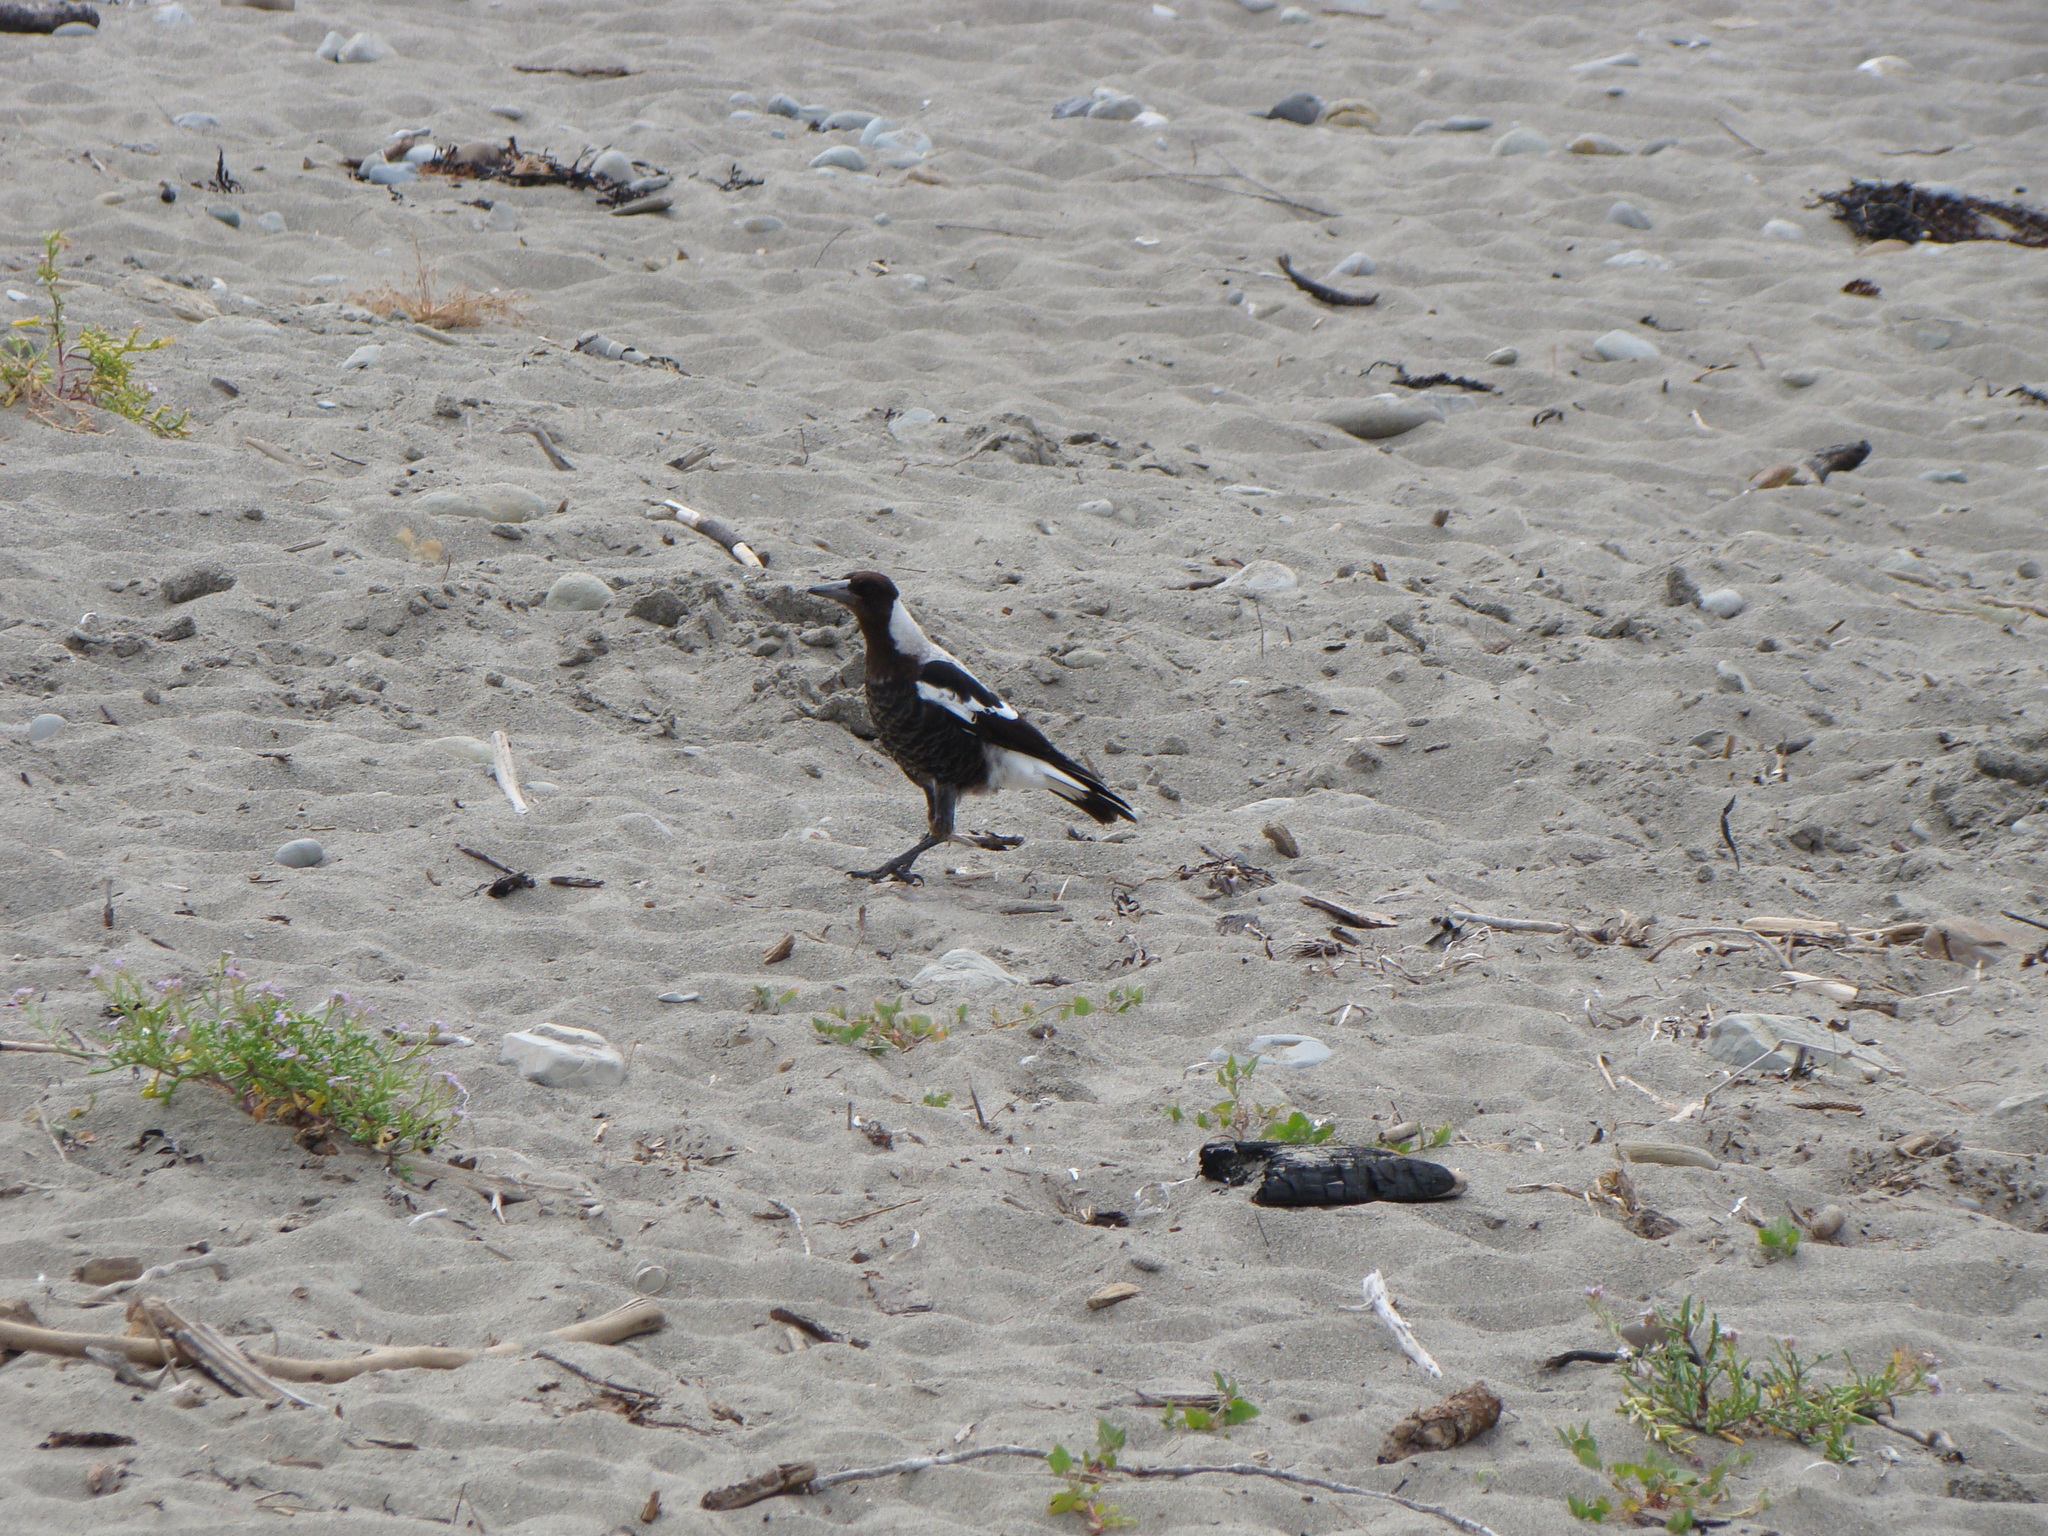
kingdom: Animalia
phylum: Chordata
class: Aves
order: Passeriformes
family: Cracticidae
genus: Gymnorhina
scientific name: Gymnorhina tibicen
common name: Australian magpie
